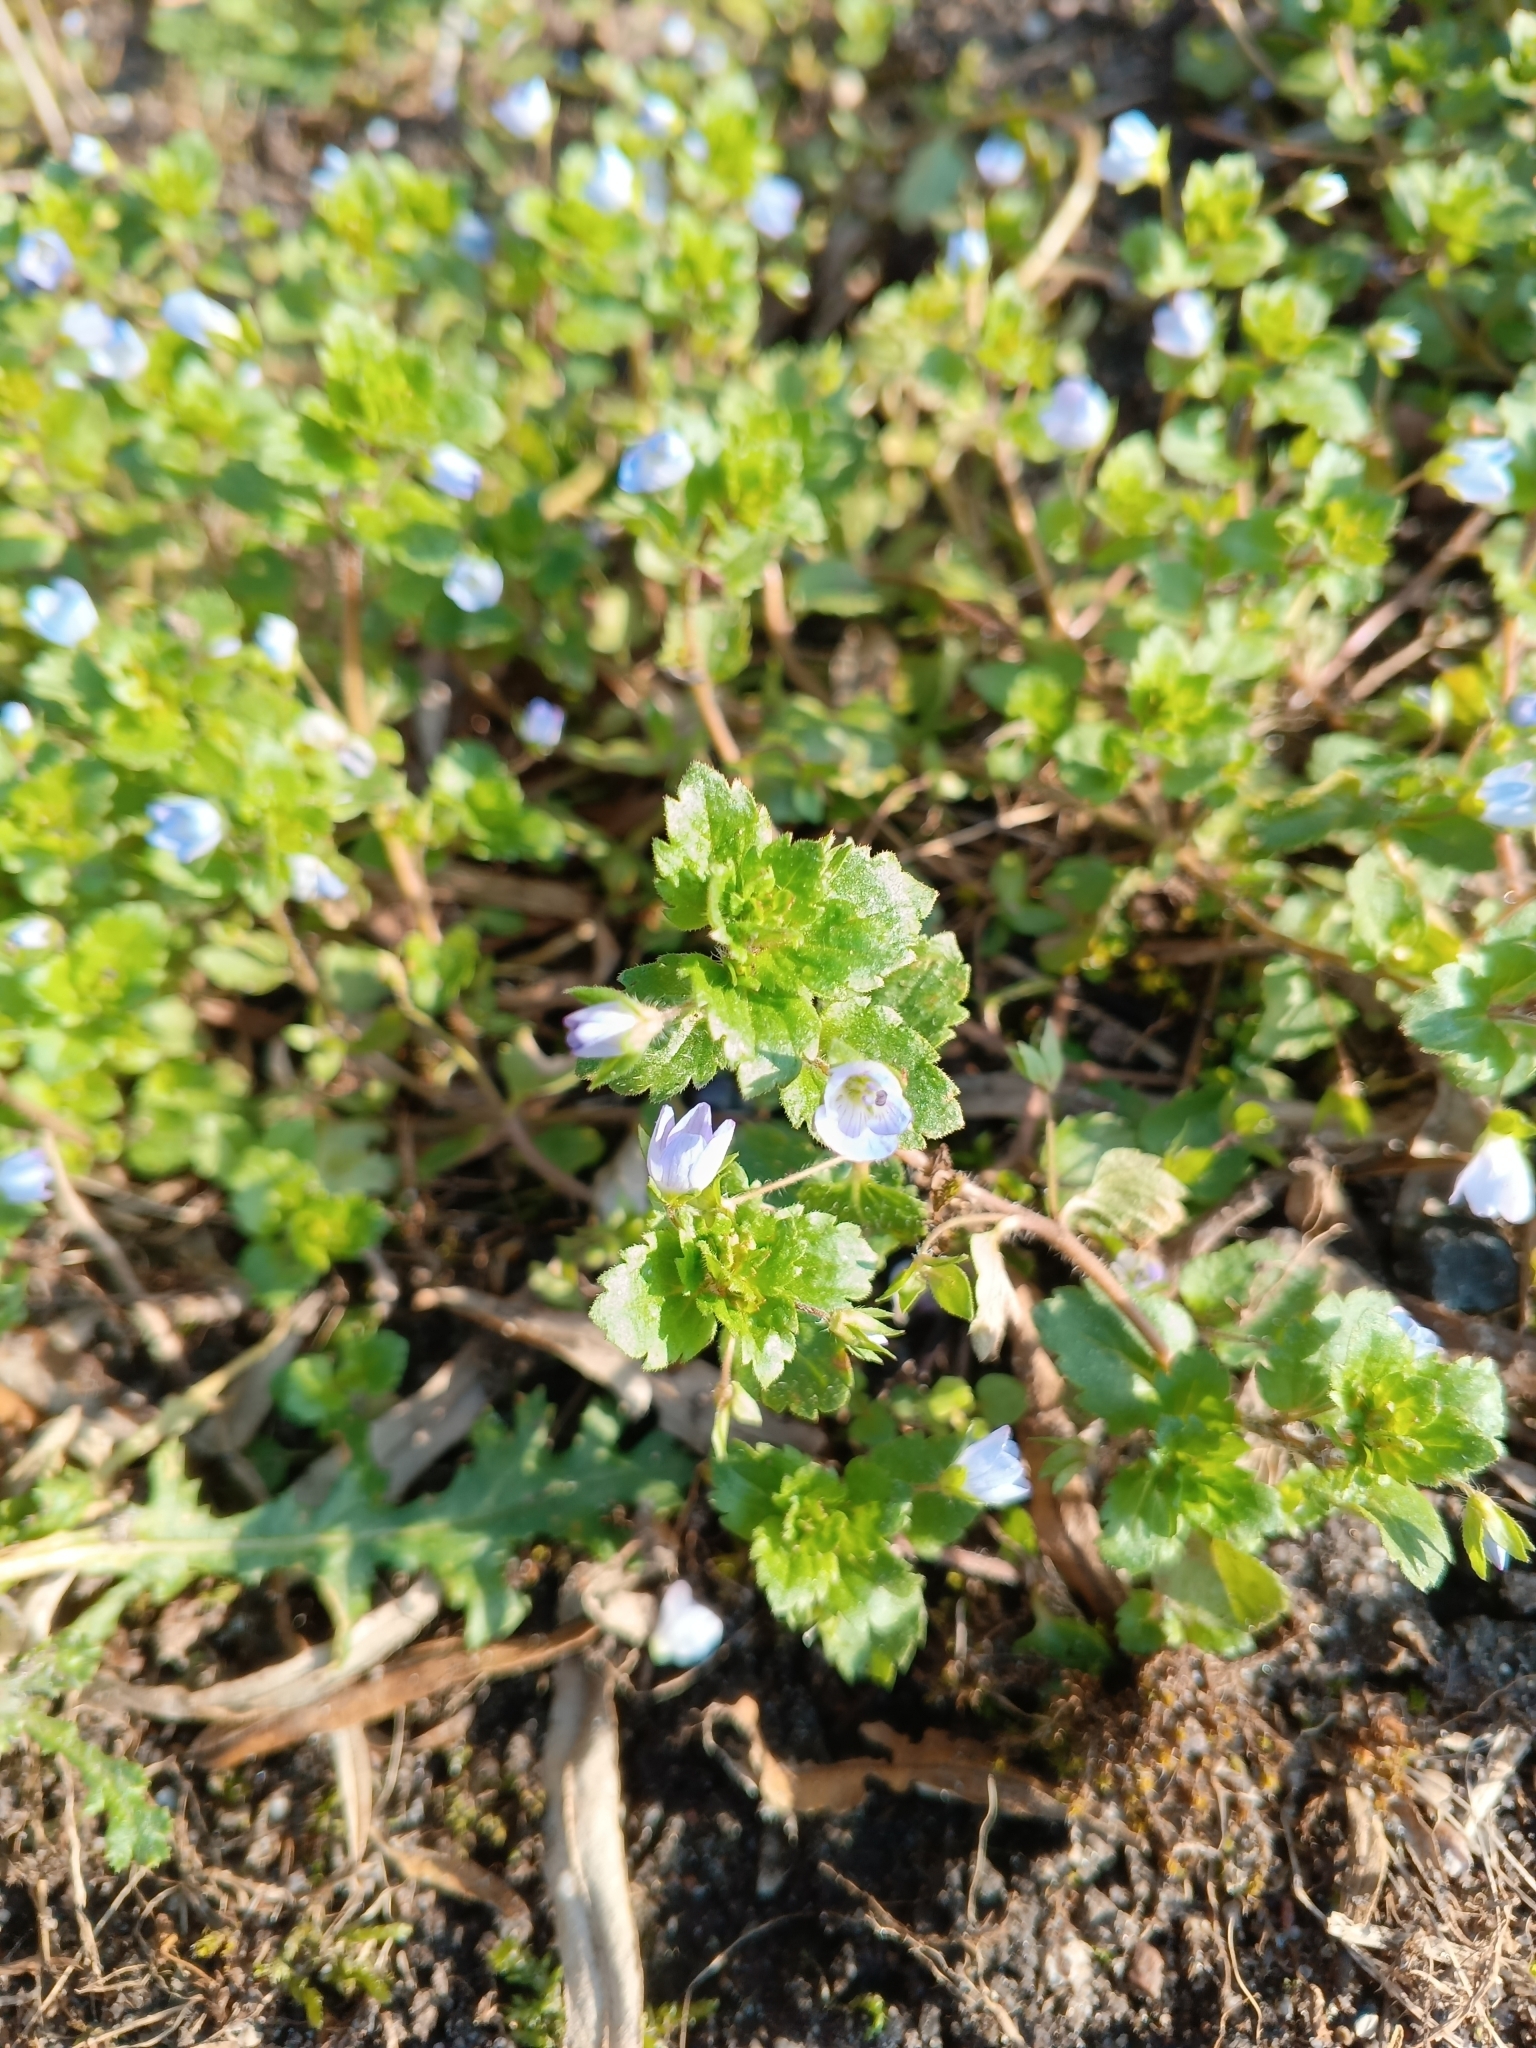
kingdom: Plantae
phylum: Tracheophyta
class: Magnoliopsida
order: Lamiales
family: Plantaginaceae
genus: Veronica
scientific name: Veronica persica
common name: Common field-speedwell
